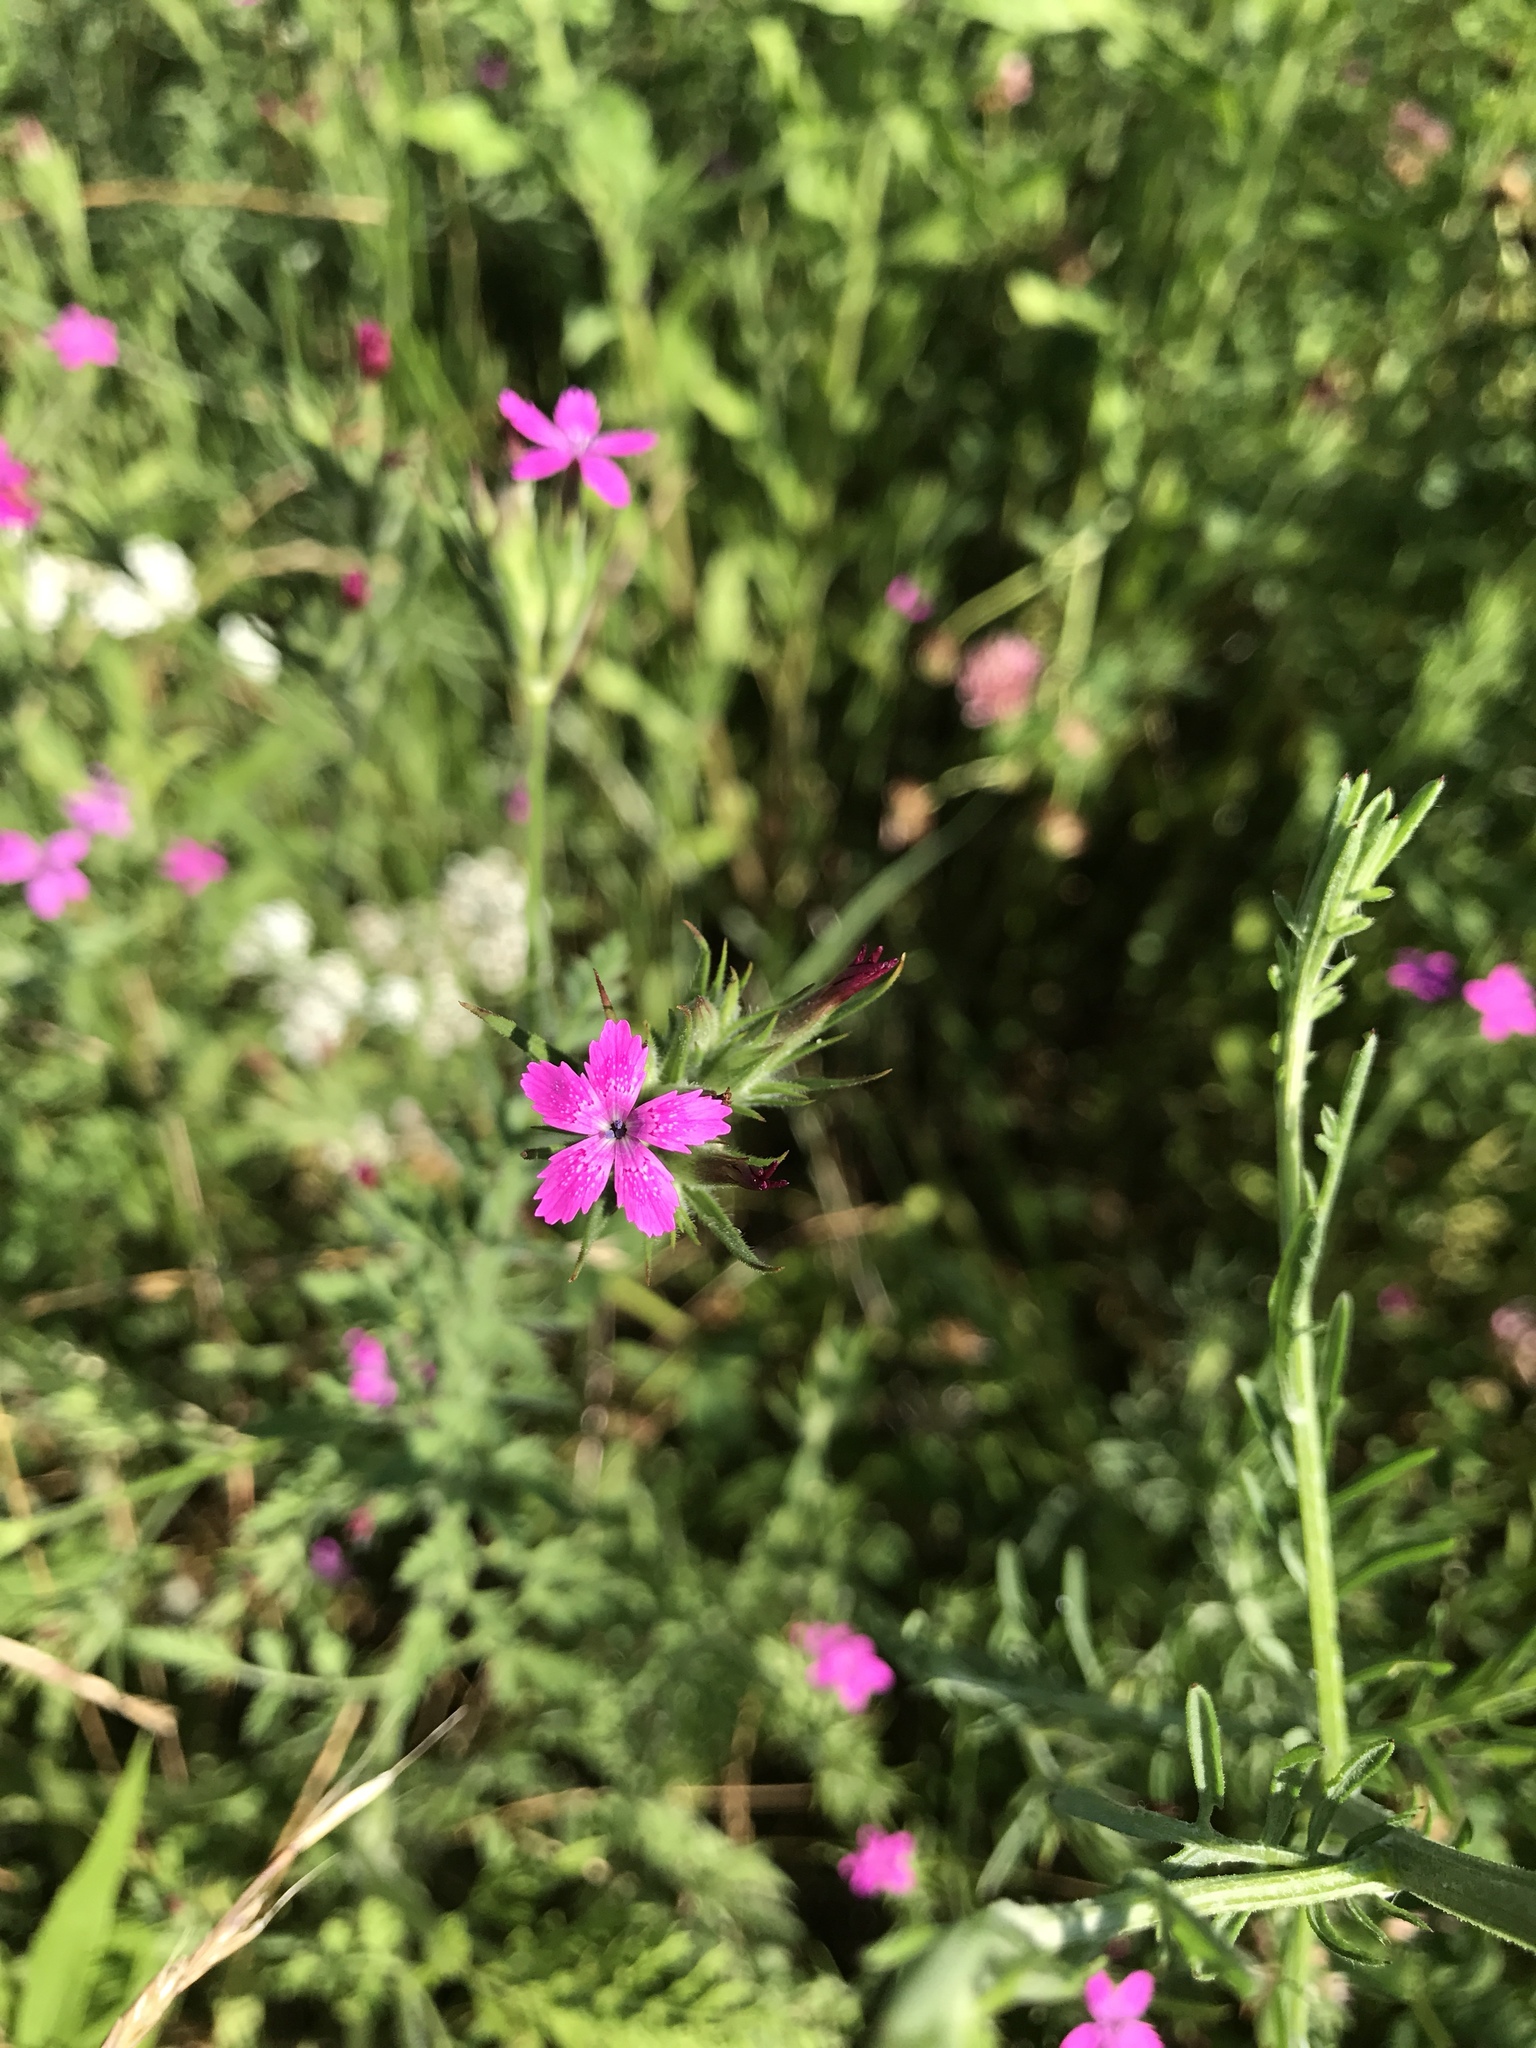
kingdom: Plantae
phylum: Tracheophyta
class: Magnoliopsida
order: Caryophyllales
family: Caryophyllaceae
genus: Dianthus
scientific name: Dianthus armeria
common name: Deptford pink
